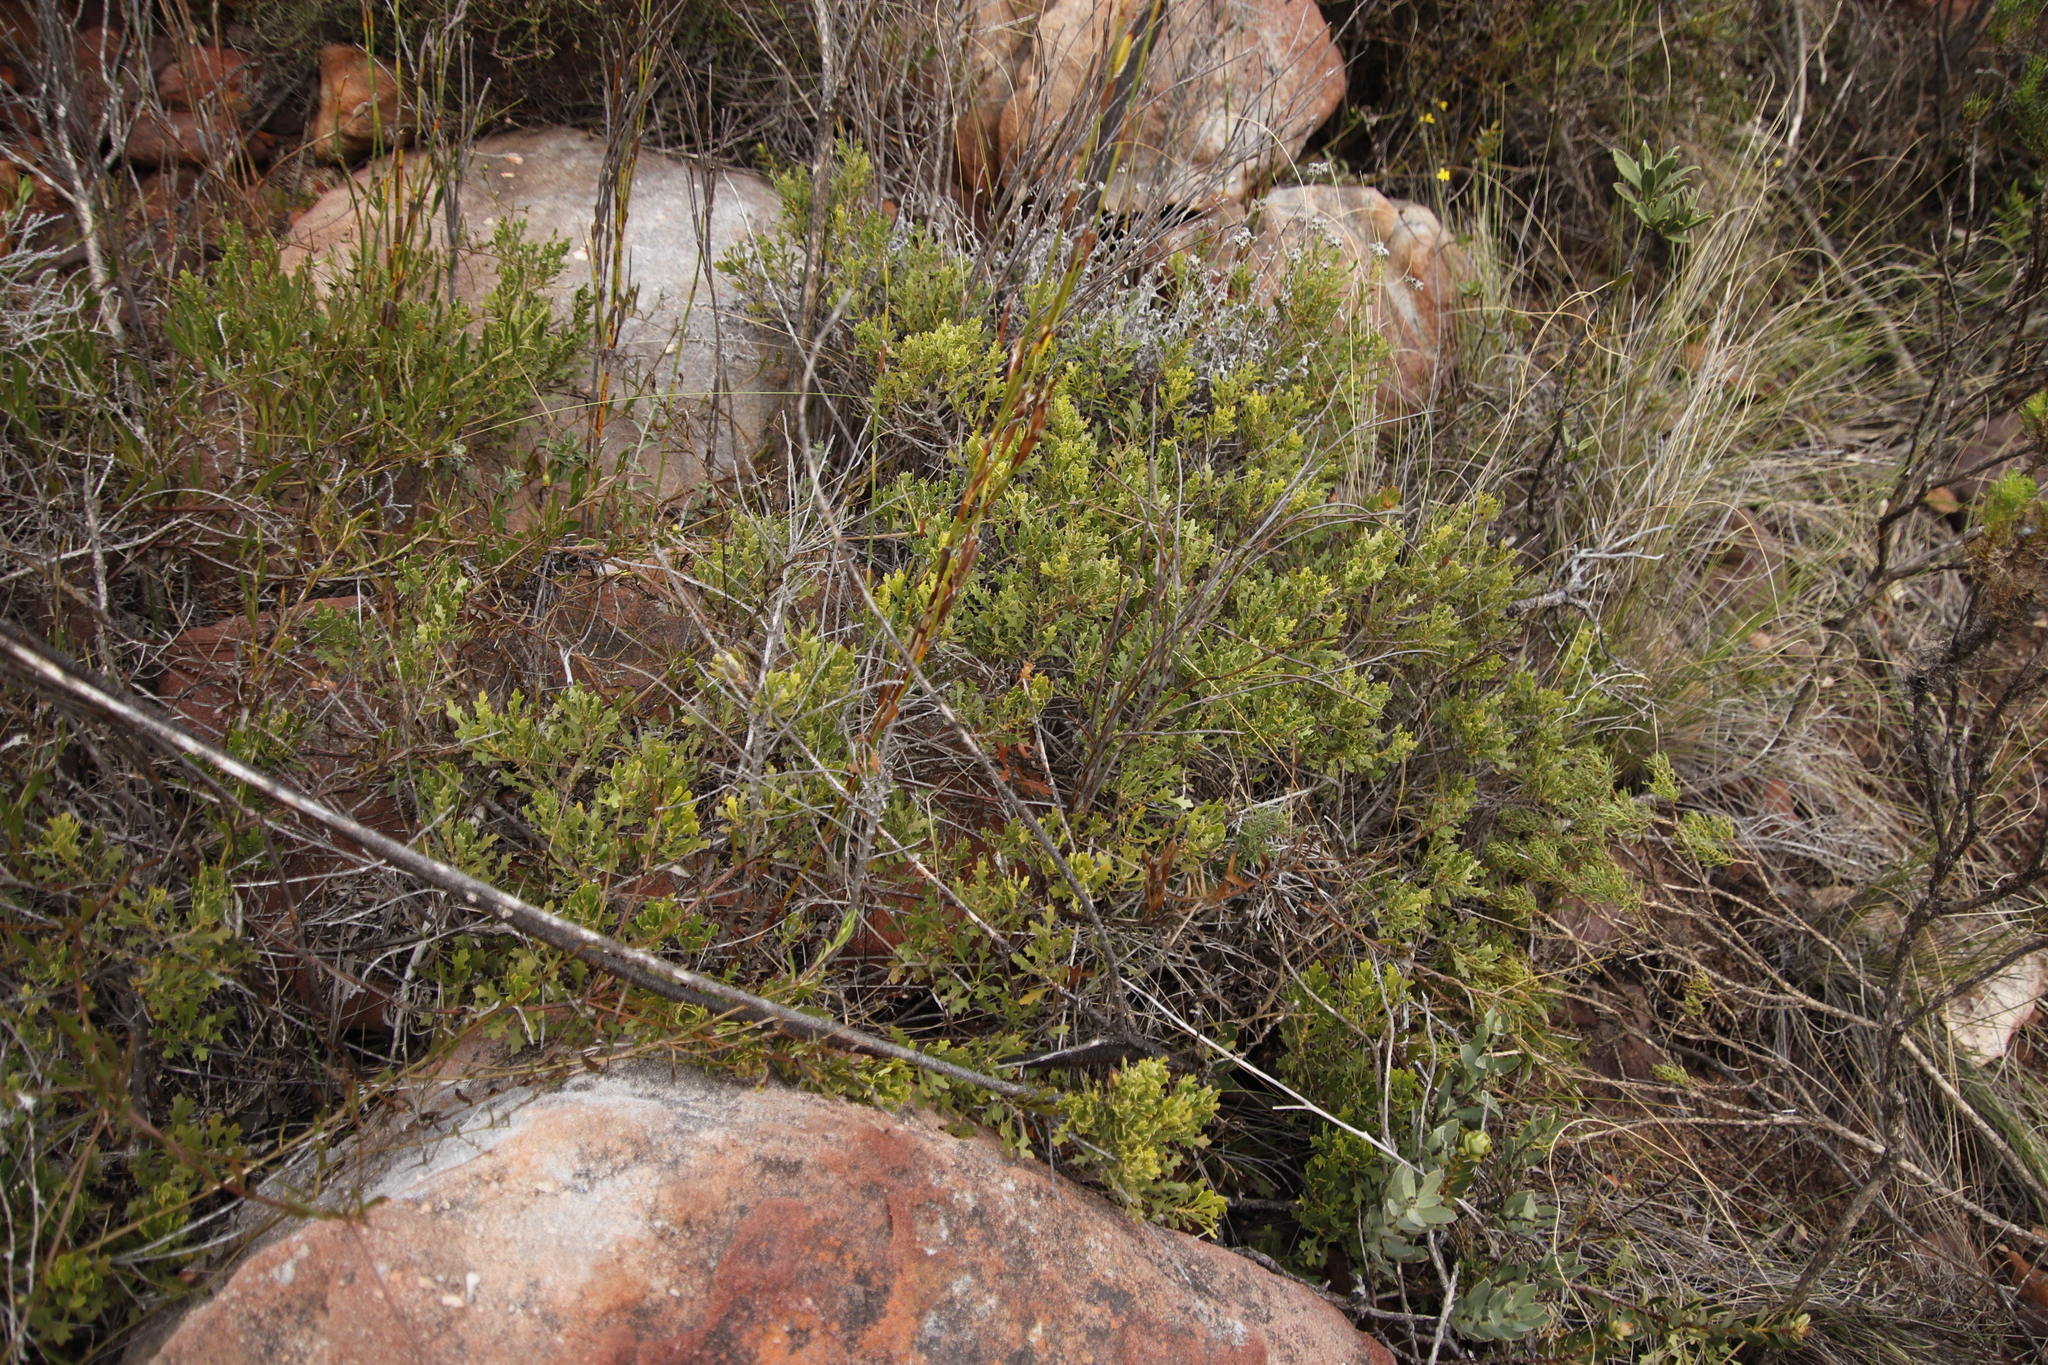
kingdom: Plantae
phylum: Tracheophyta
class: Magnoliopsida
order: Fagales
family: Myricaceae
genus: Morella
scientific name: Morella quercifolia
